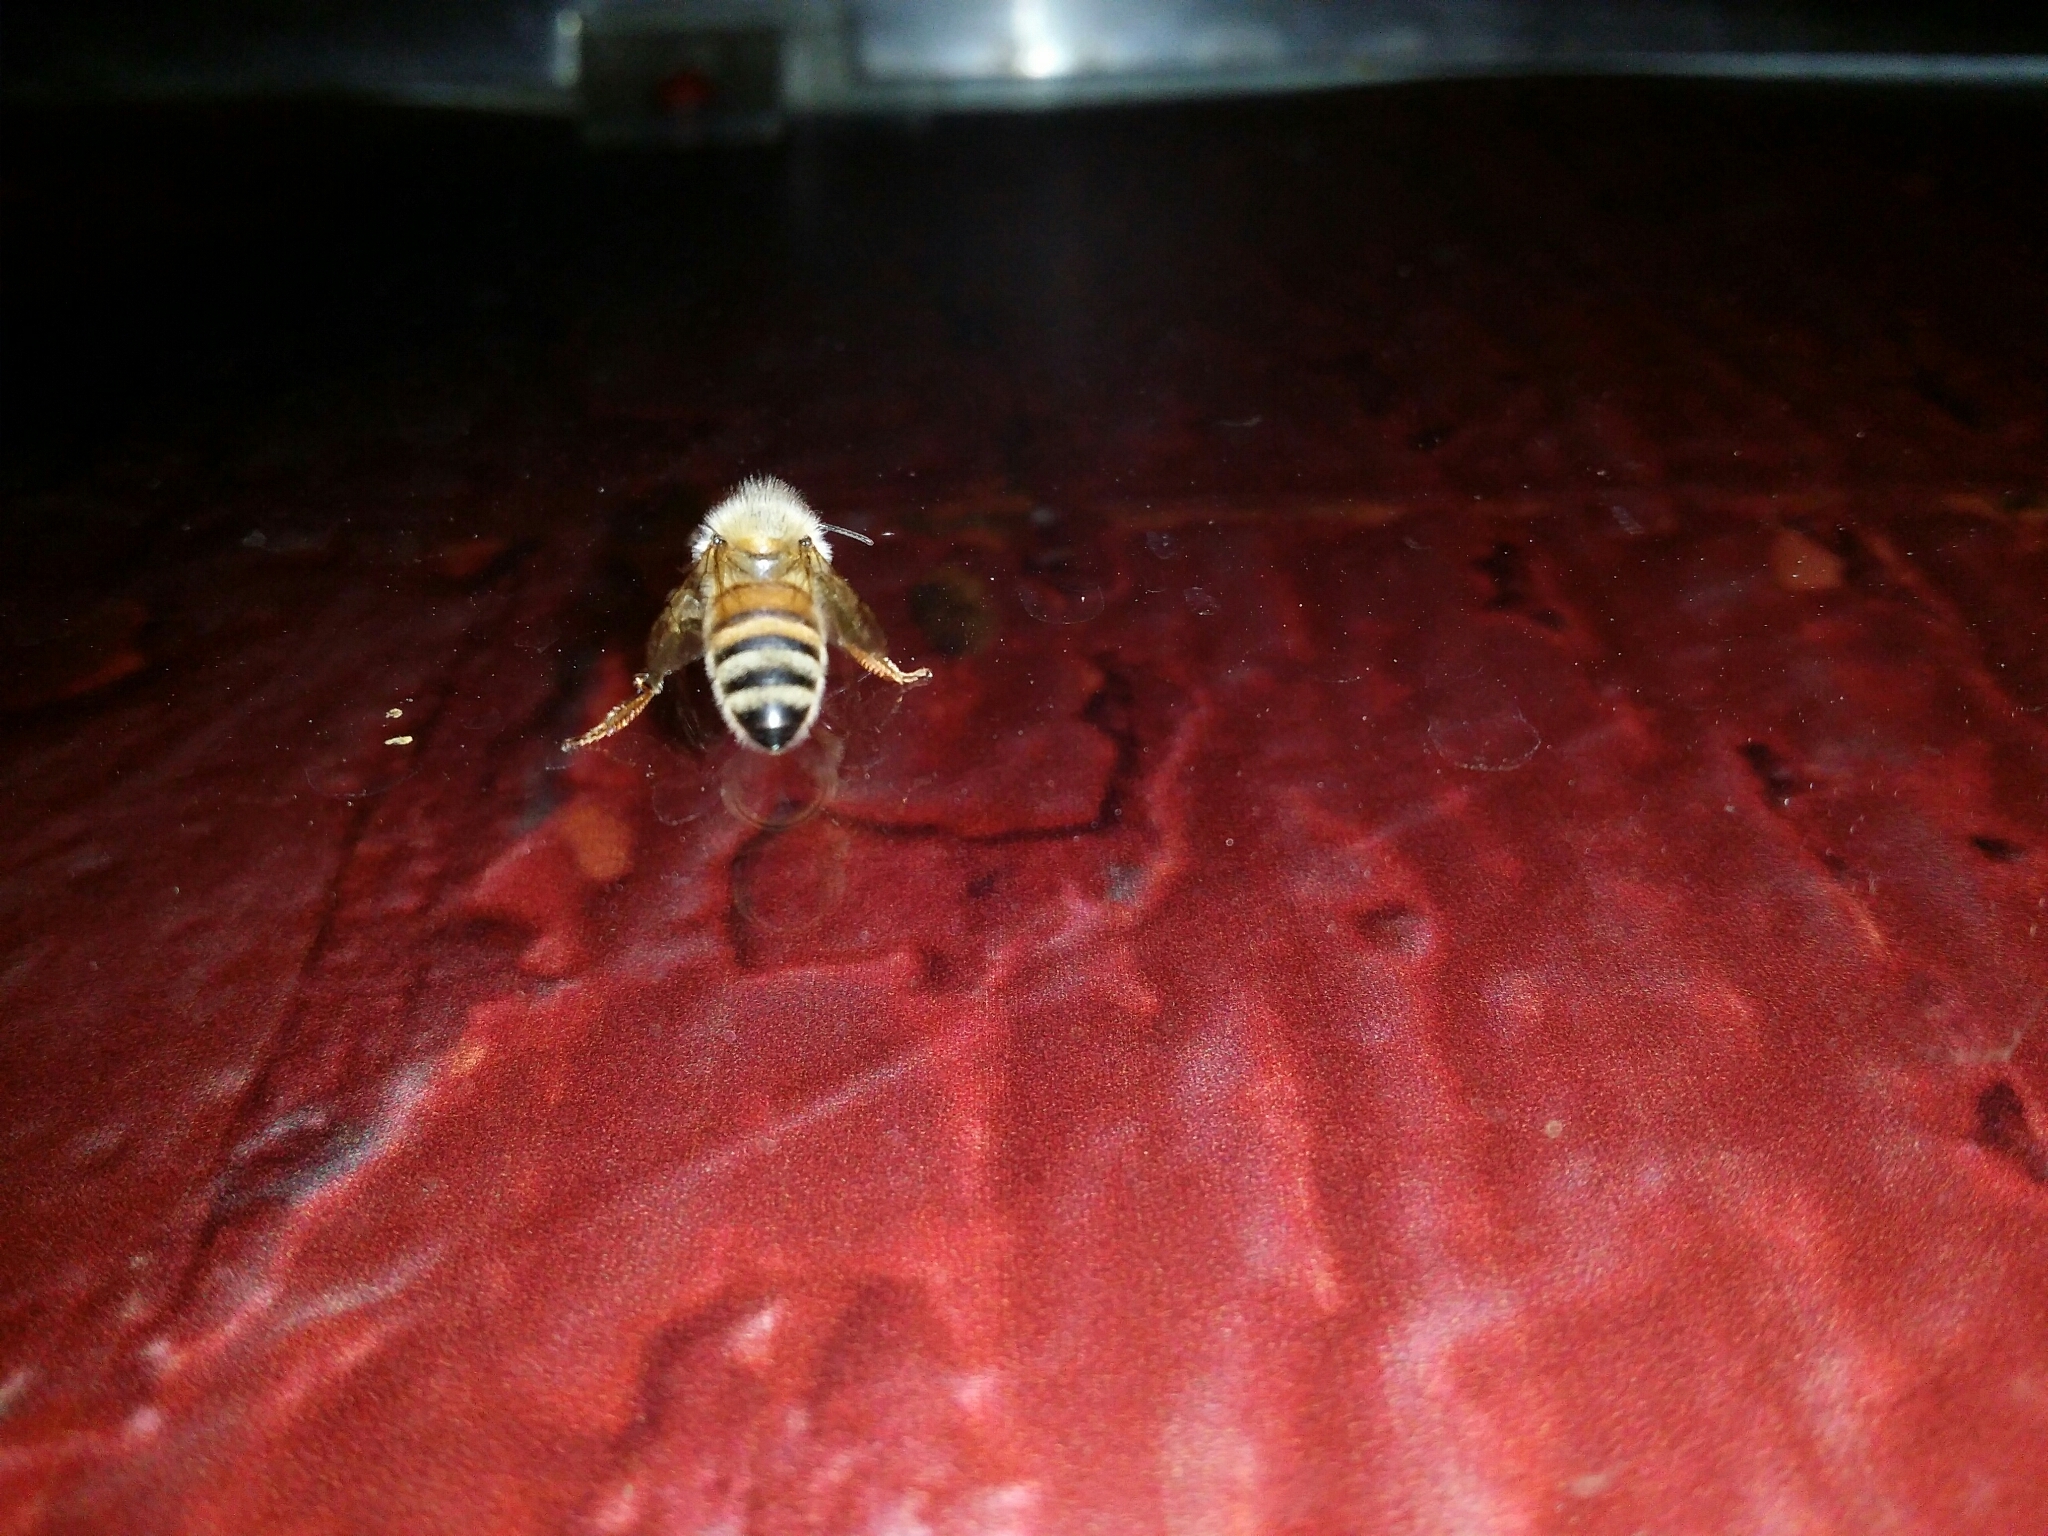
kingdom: Animalia
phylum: Arthropoda
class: Insecta
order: Hymenoptera
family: Apidae
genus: Apis
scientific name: Apis mellifera
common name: Honey bee
